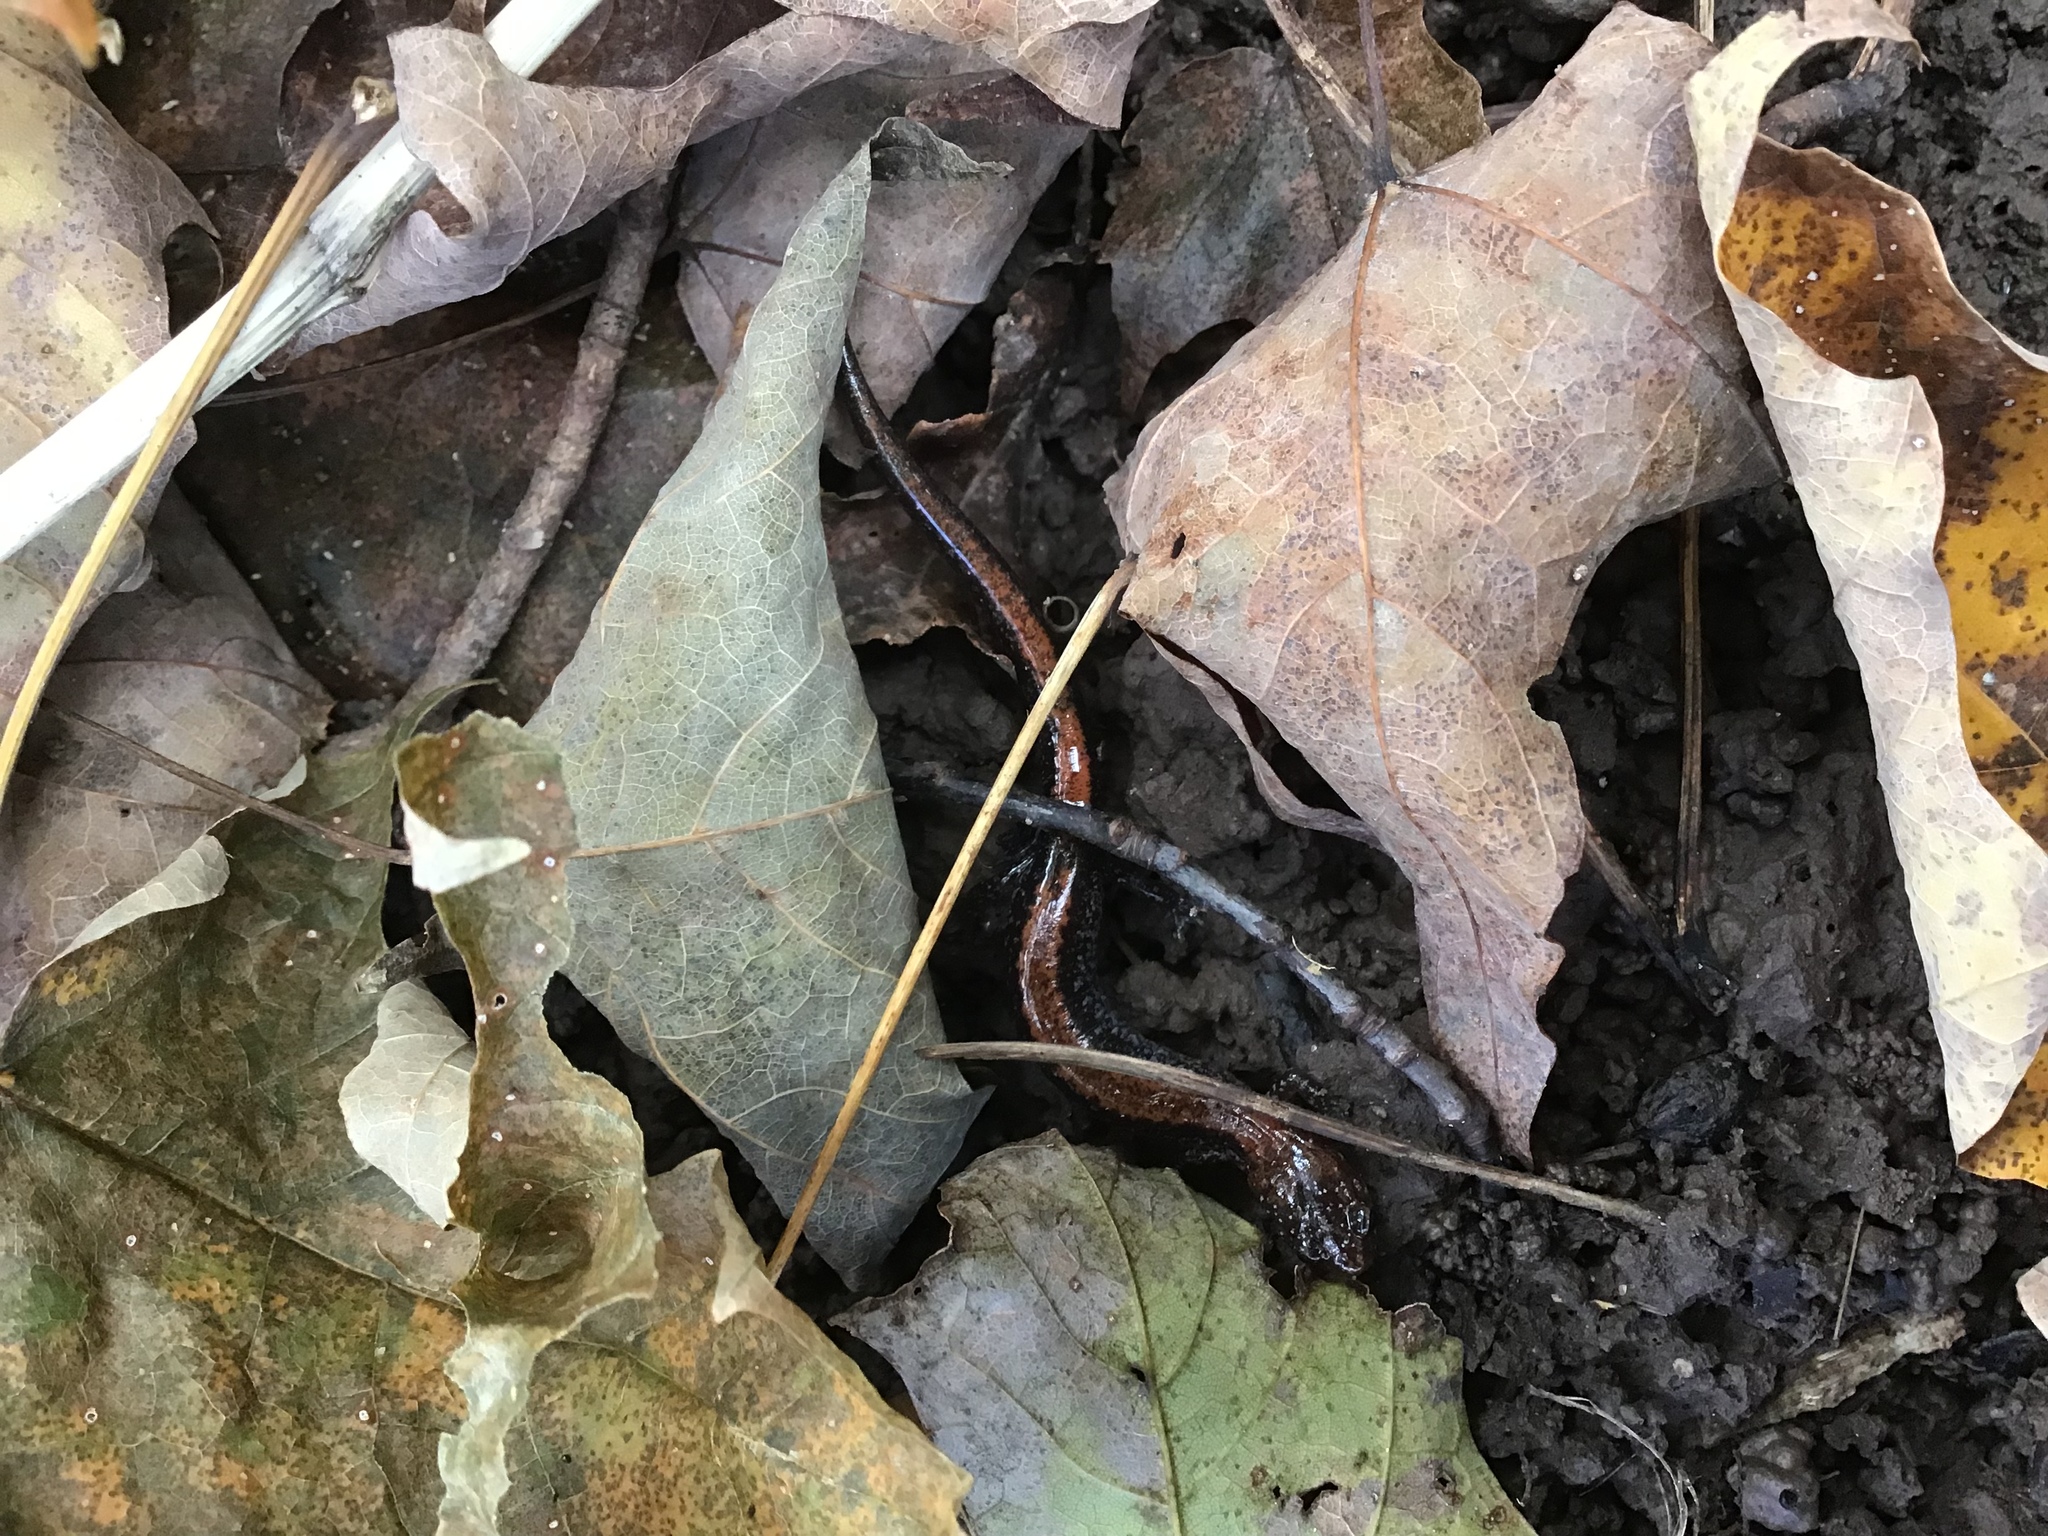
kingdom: Animalia
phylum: Chordata
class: Amphibia
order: Caudata
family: Plethodontidae
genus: Plethodon
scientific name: Plethodon cinereus
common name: Redback salamander
